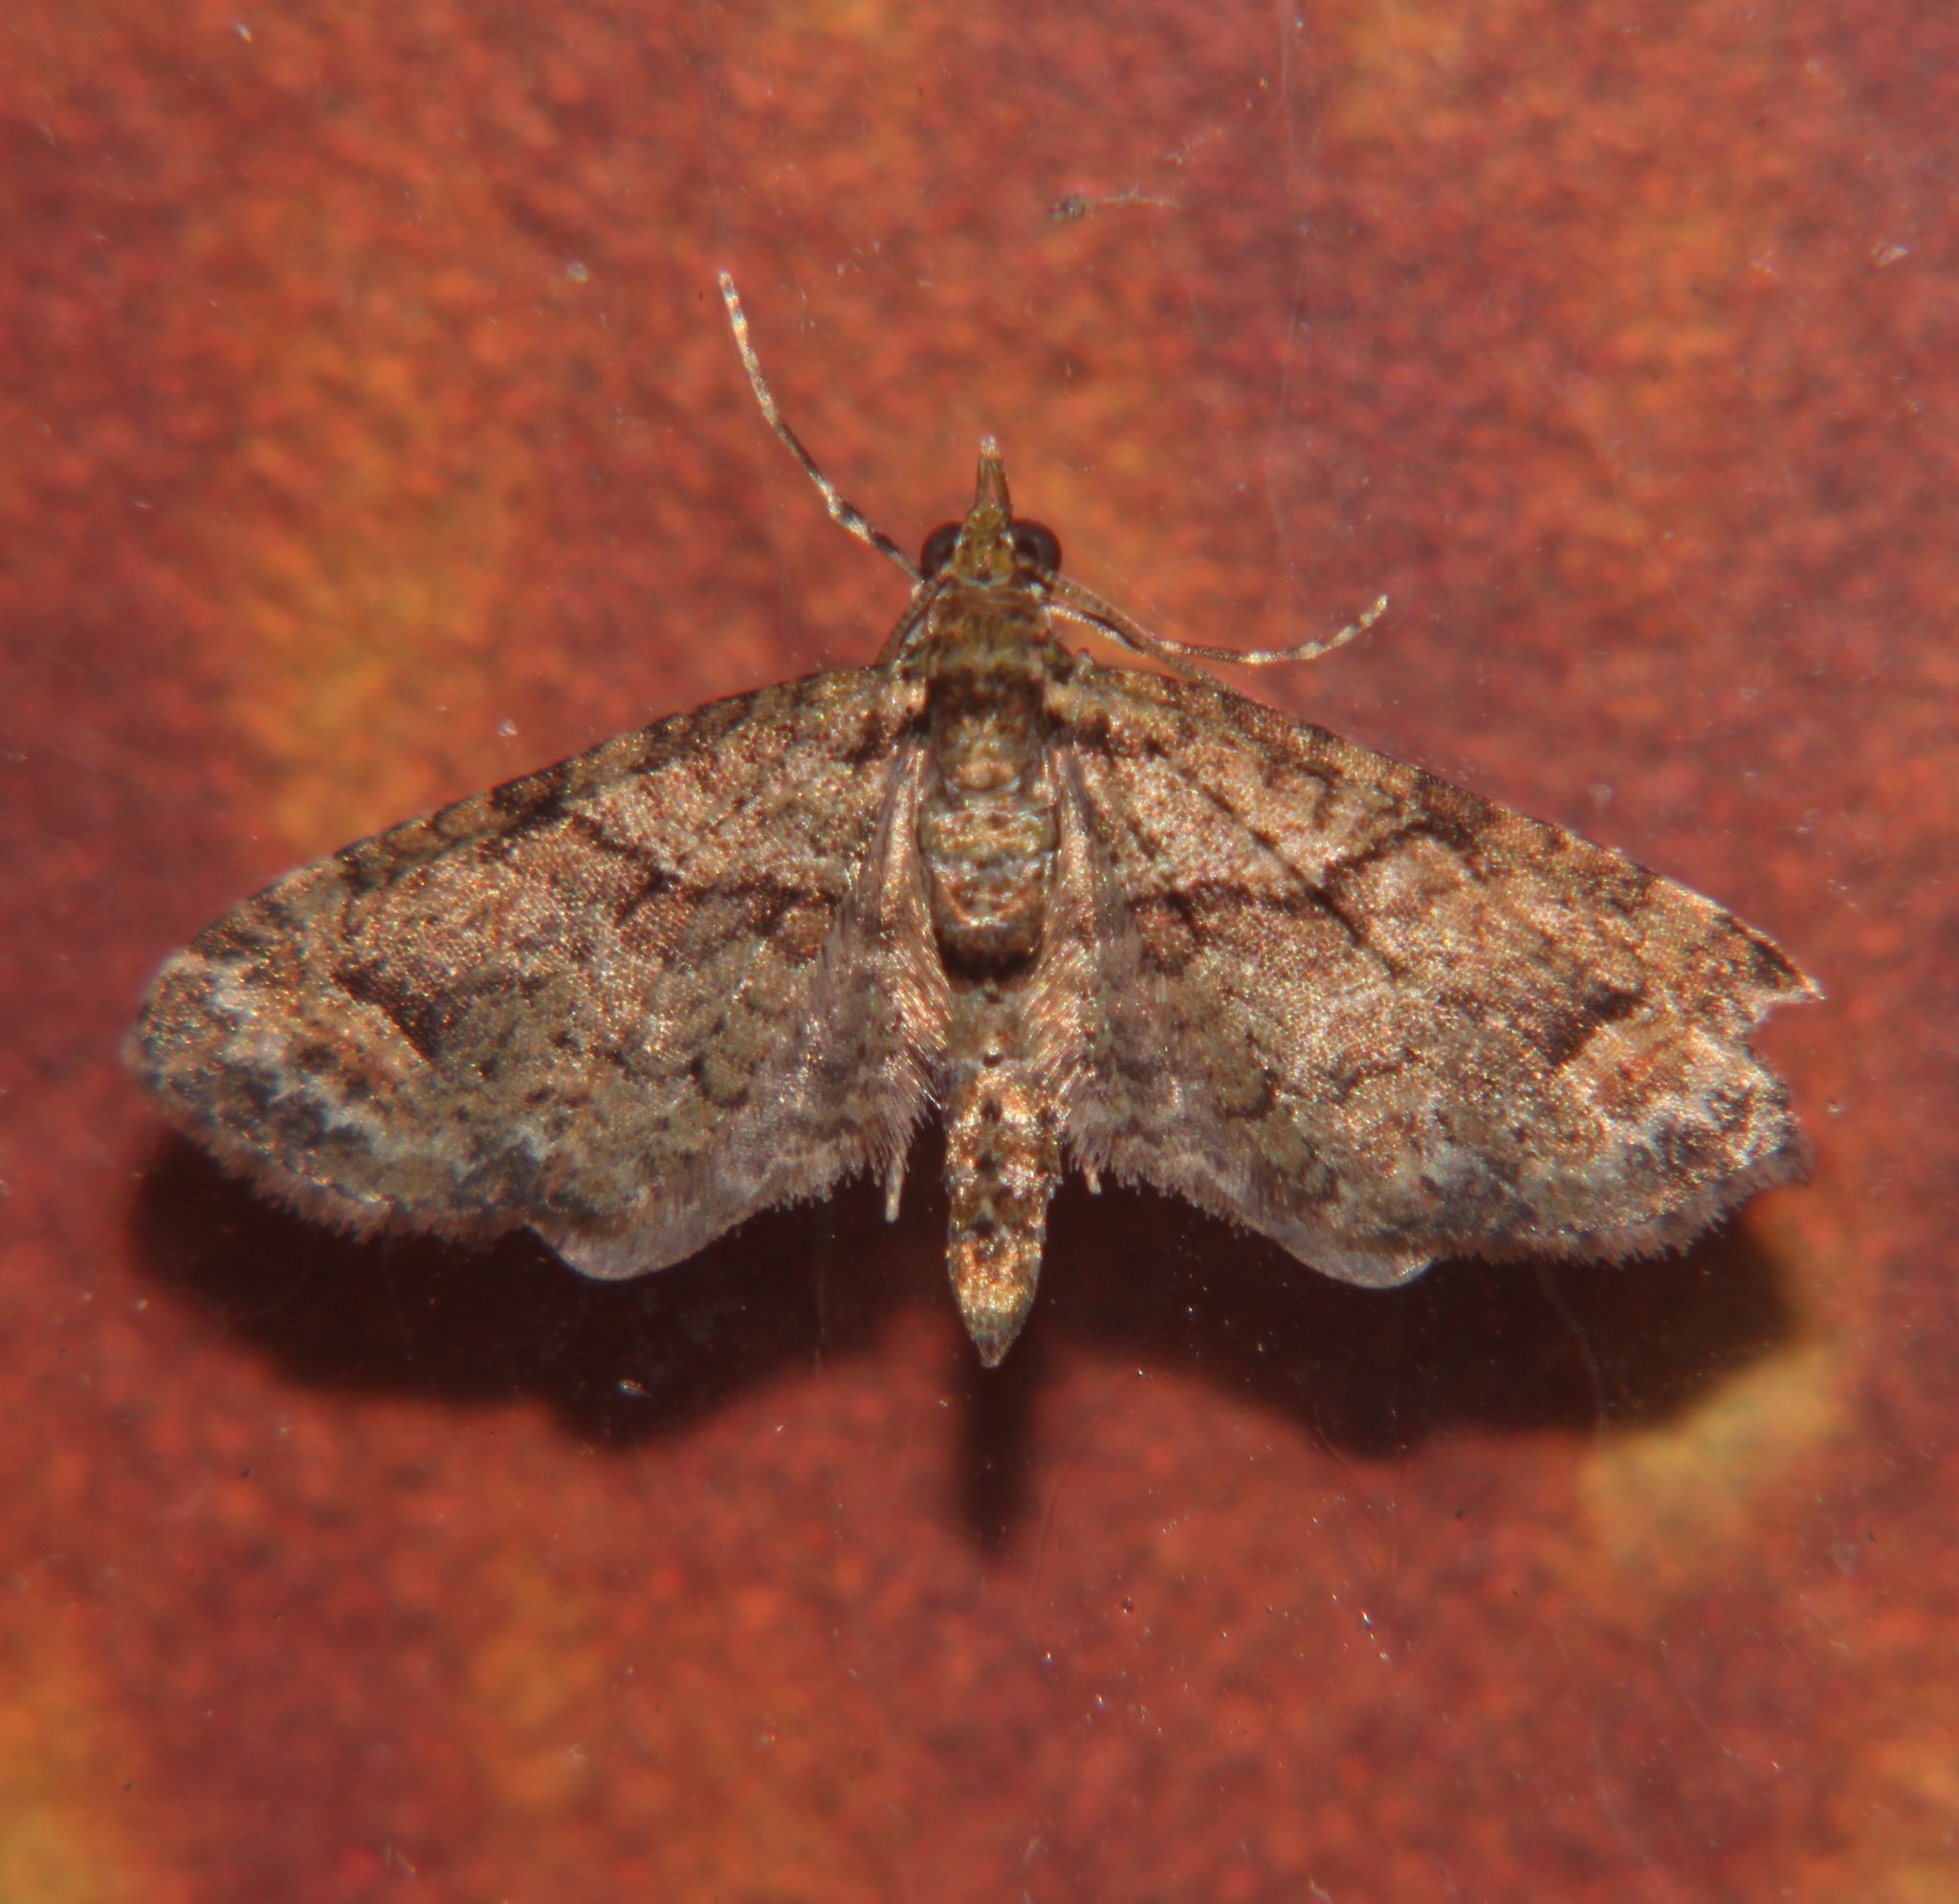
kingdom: Animalia
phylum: Arthropoda
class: Insecta
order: Lepidoptera
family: Geometridae
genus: Idaea
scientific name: Idaea mutanda
